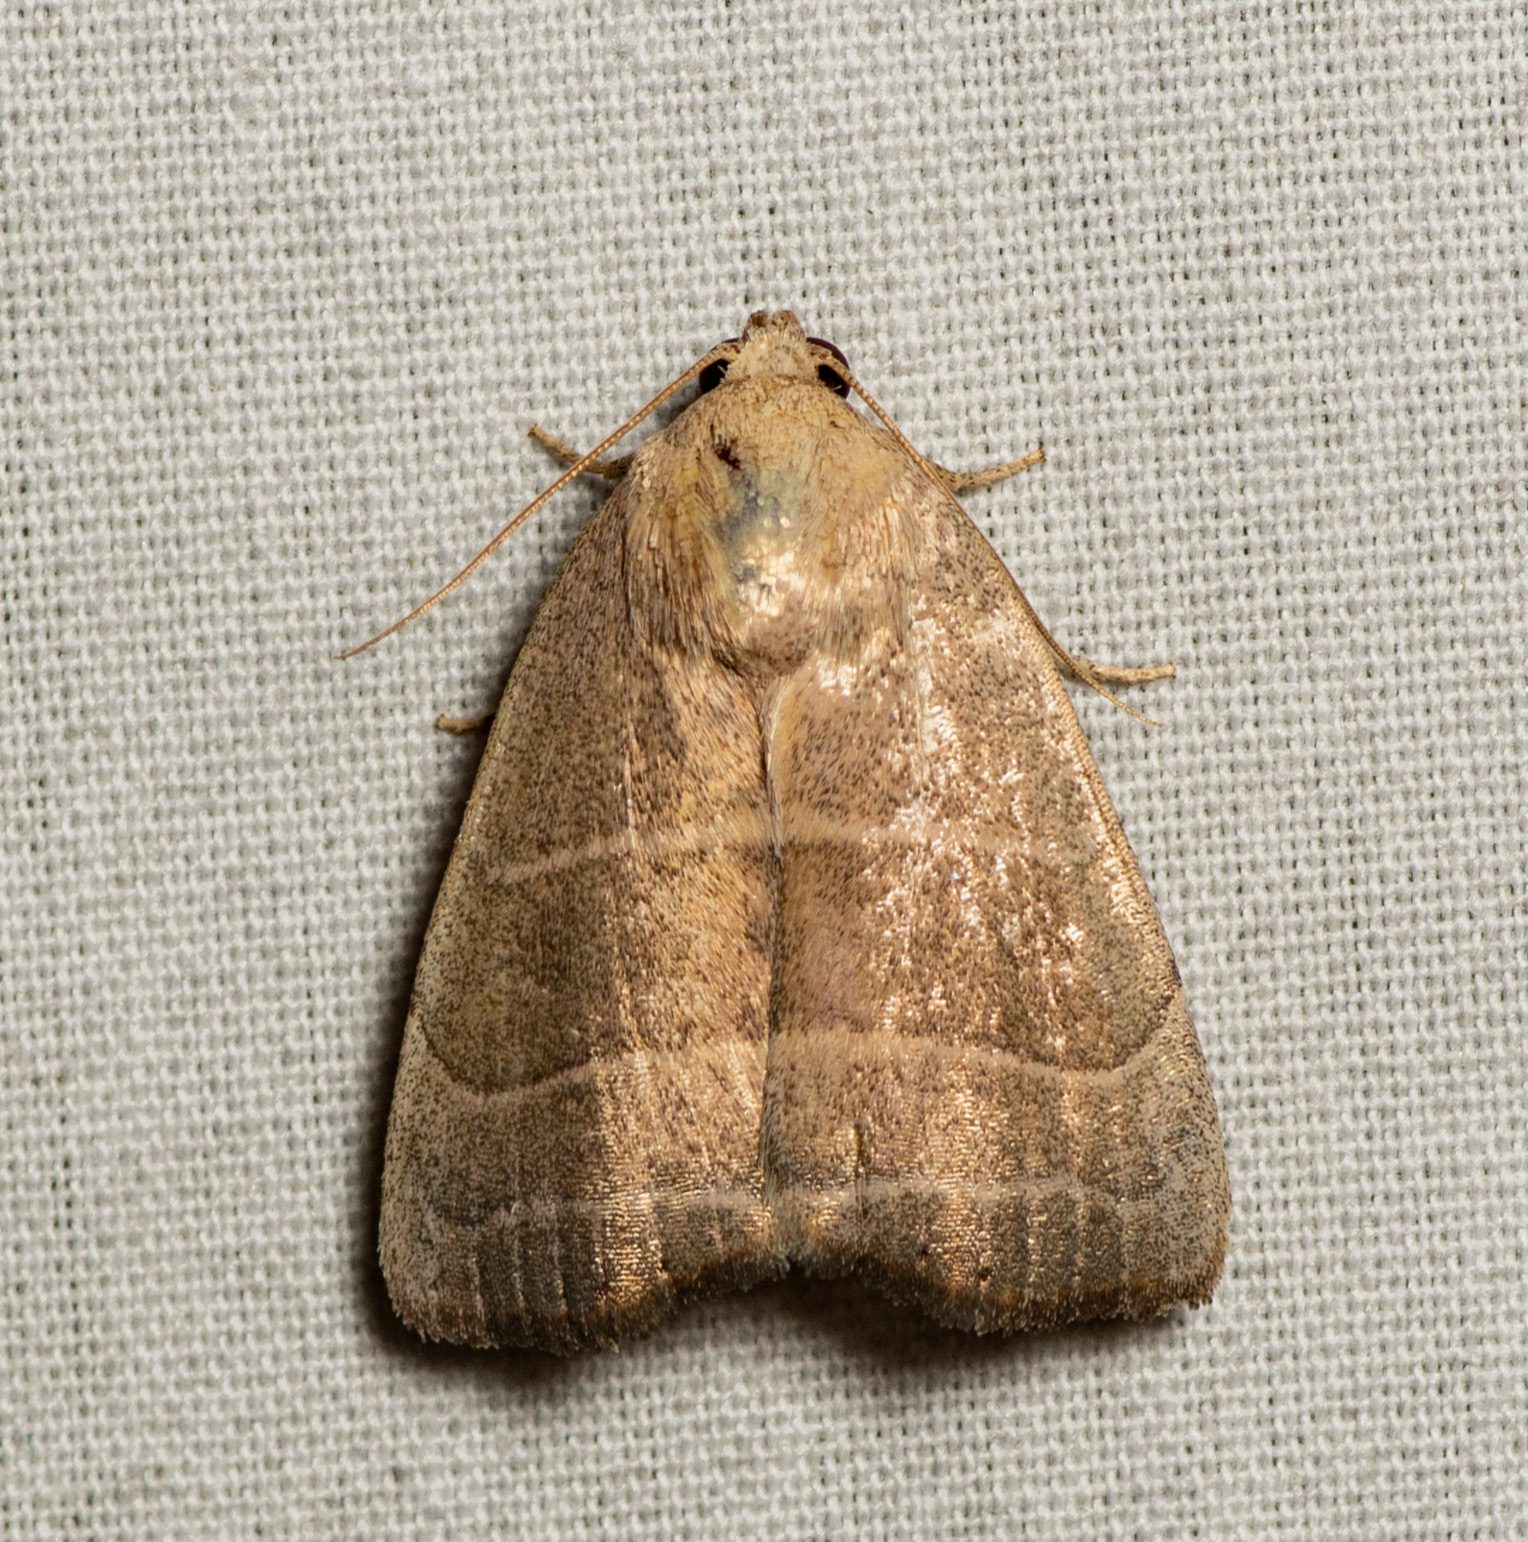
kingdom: Animalia
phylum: Arthropoda
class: Insecta
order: Lepidoptera
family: Noctuidae
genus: Bagisara
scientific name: Bagisara rectifascia
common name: Straight lined mallow moth
